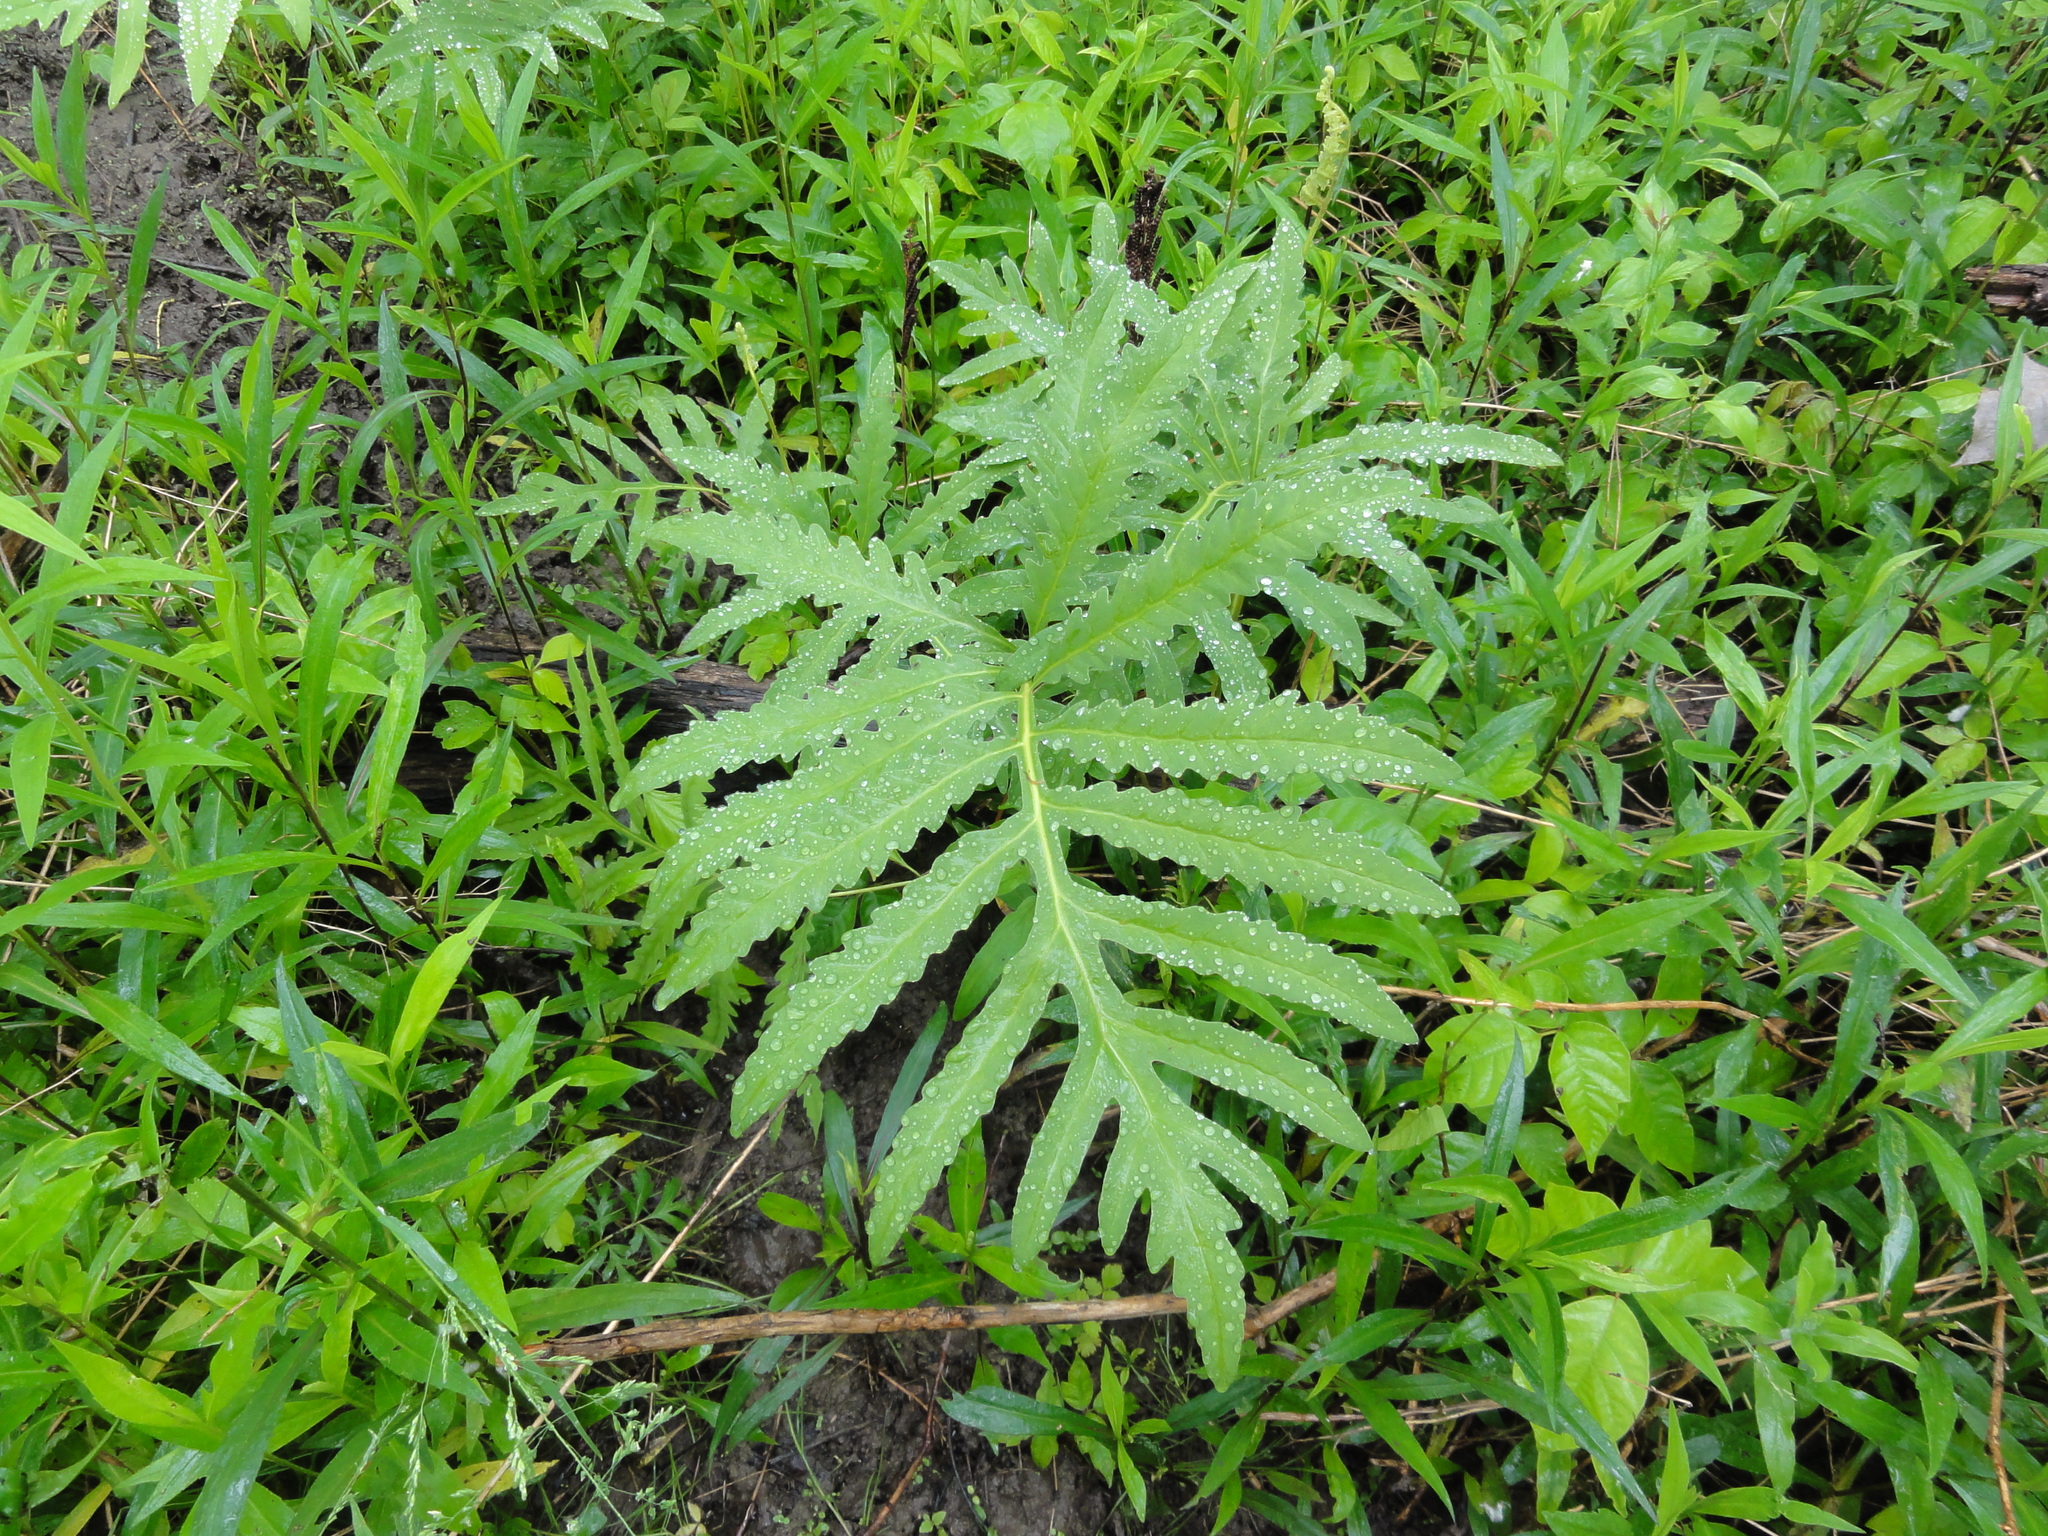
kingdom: Plantae
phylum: Tracheophyta
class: Polypodiopsida
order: Polypodiales
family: Onocleaceae
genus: Onoclea
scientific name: Onoclea sensibilis
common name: Sensitive fern
